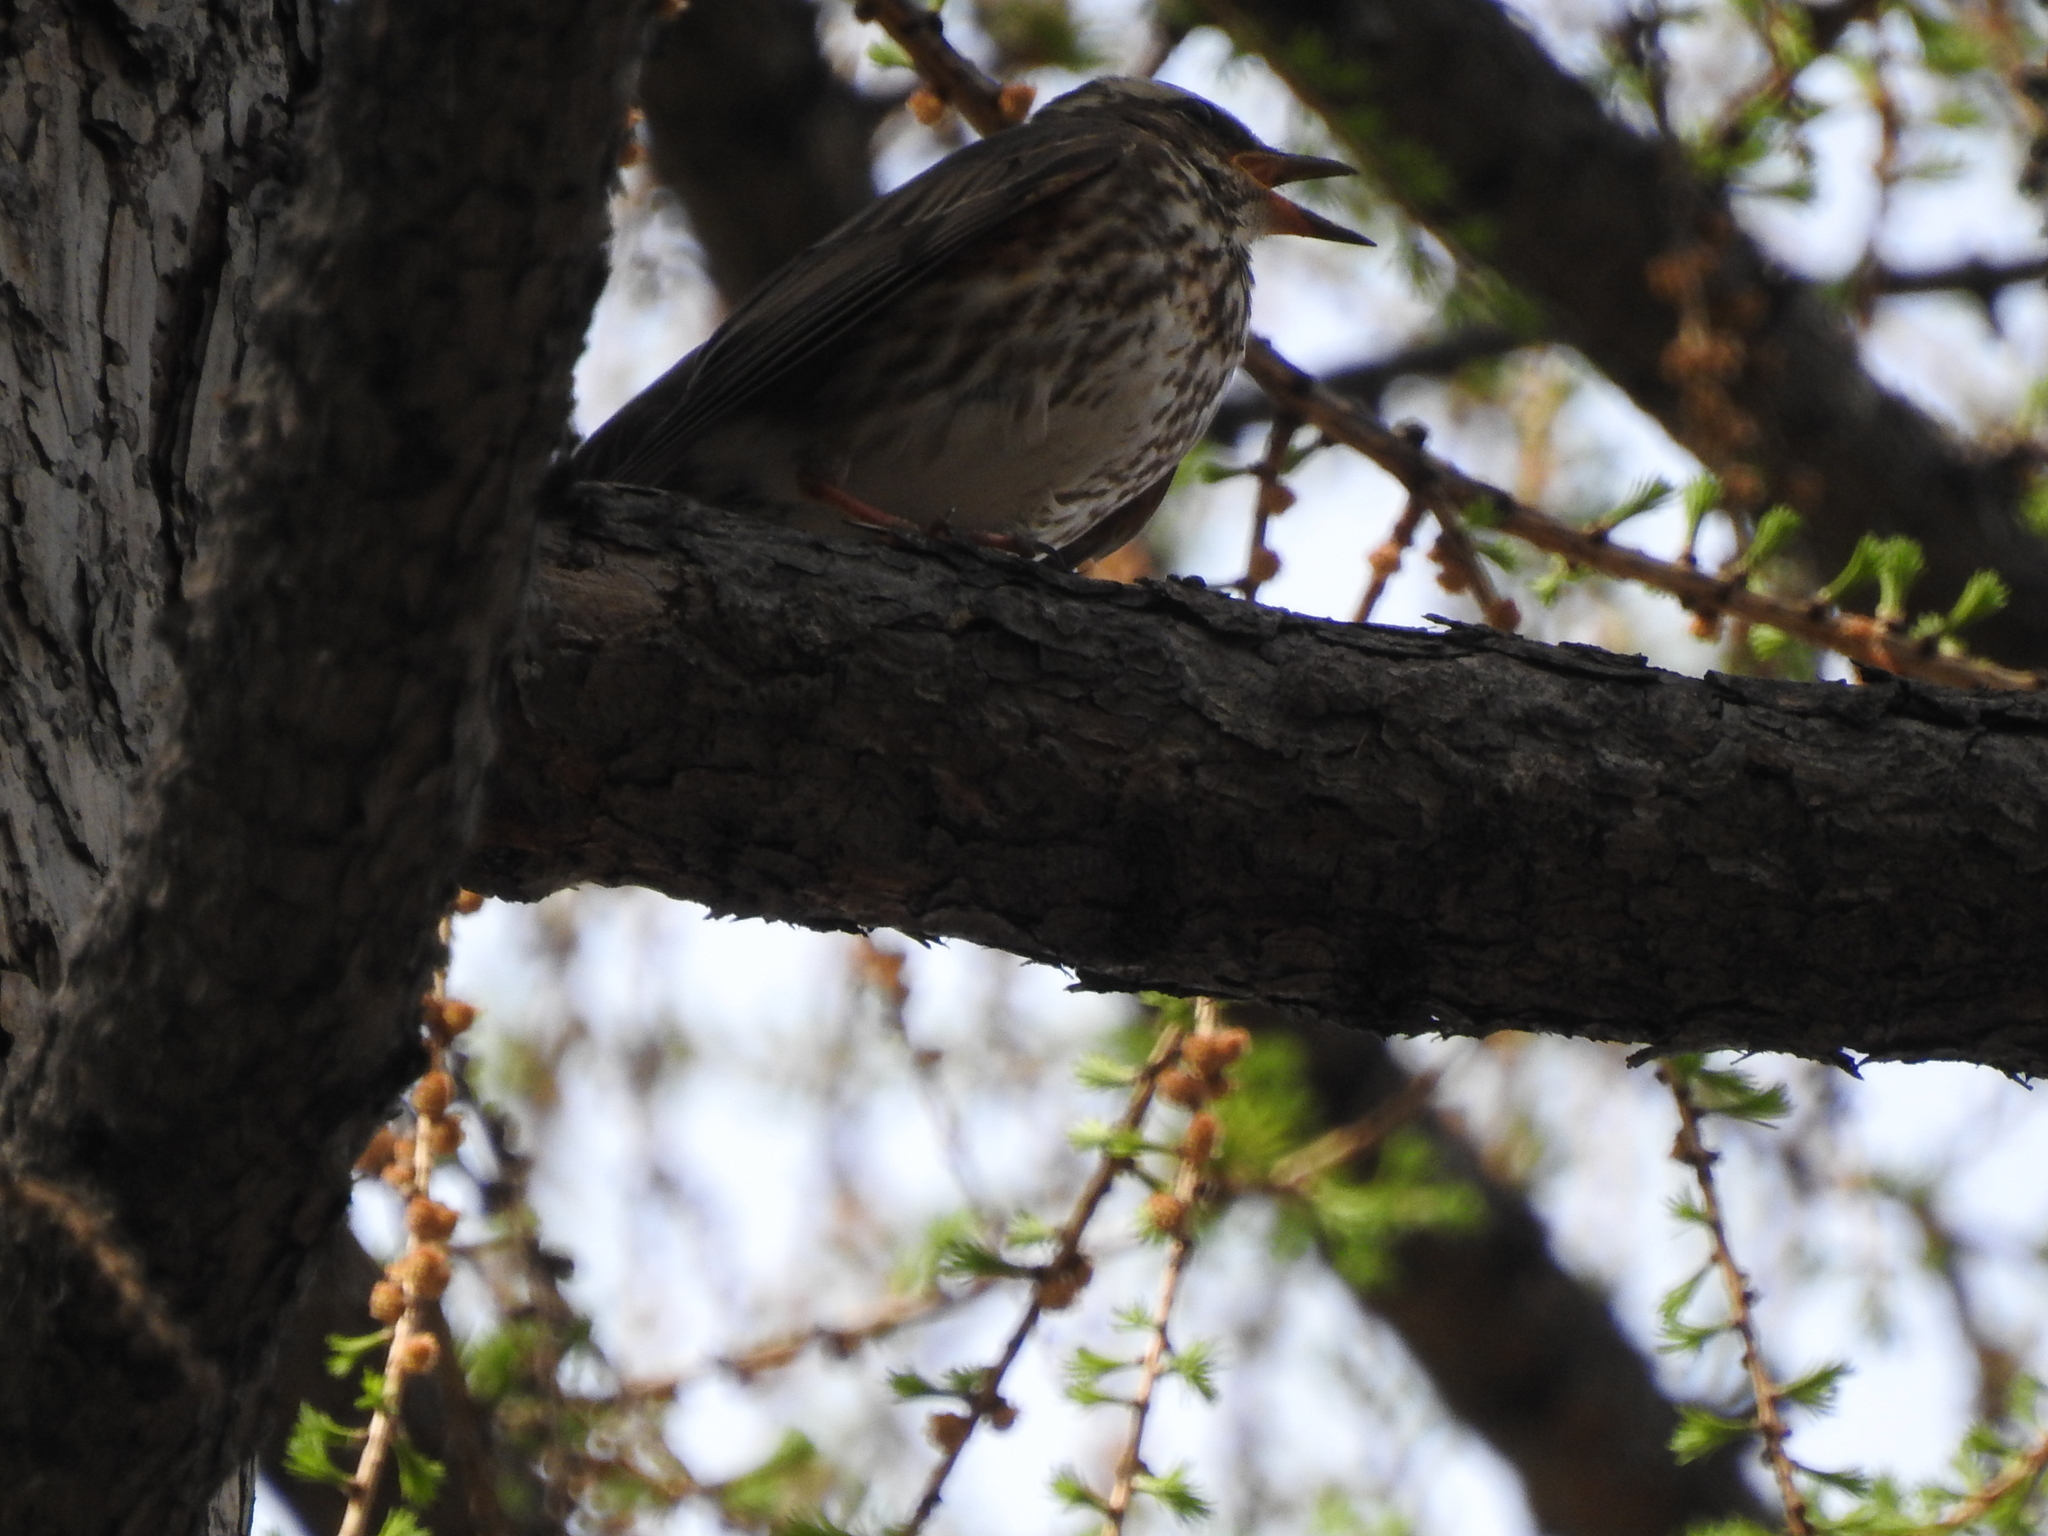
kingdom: Animalia
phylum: Chordata
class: Aves
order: Passeriformes
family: Turdidae
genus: Turdus
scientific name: Turdus iliacus
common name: Redwing
